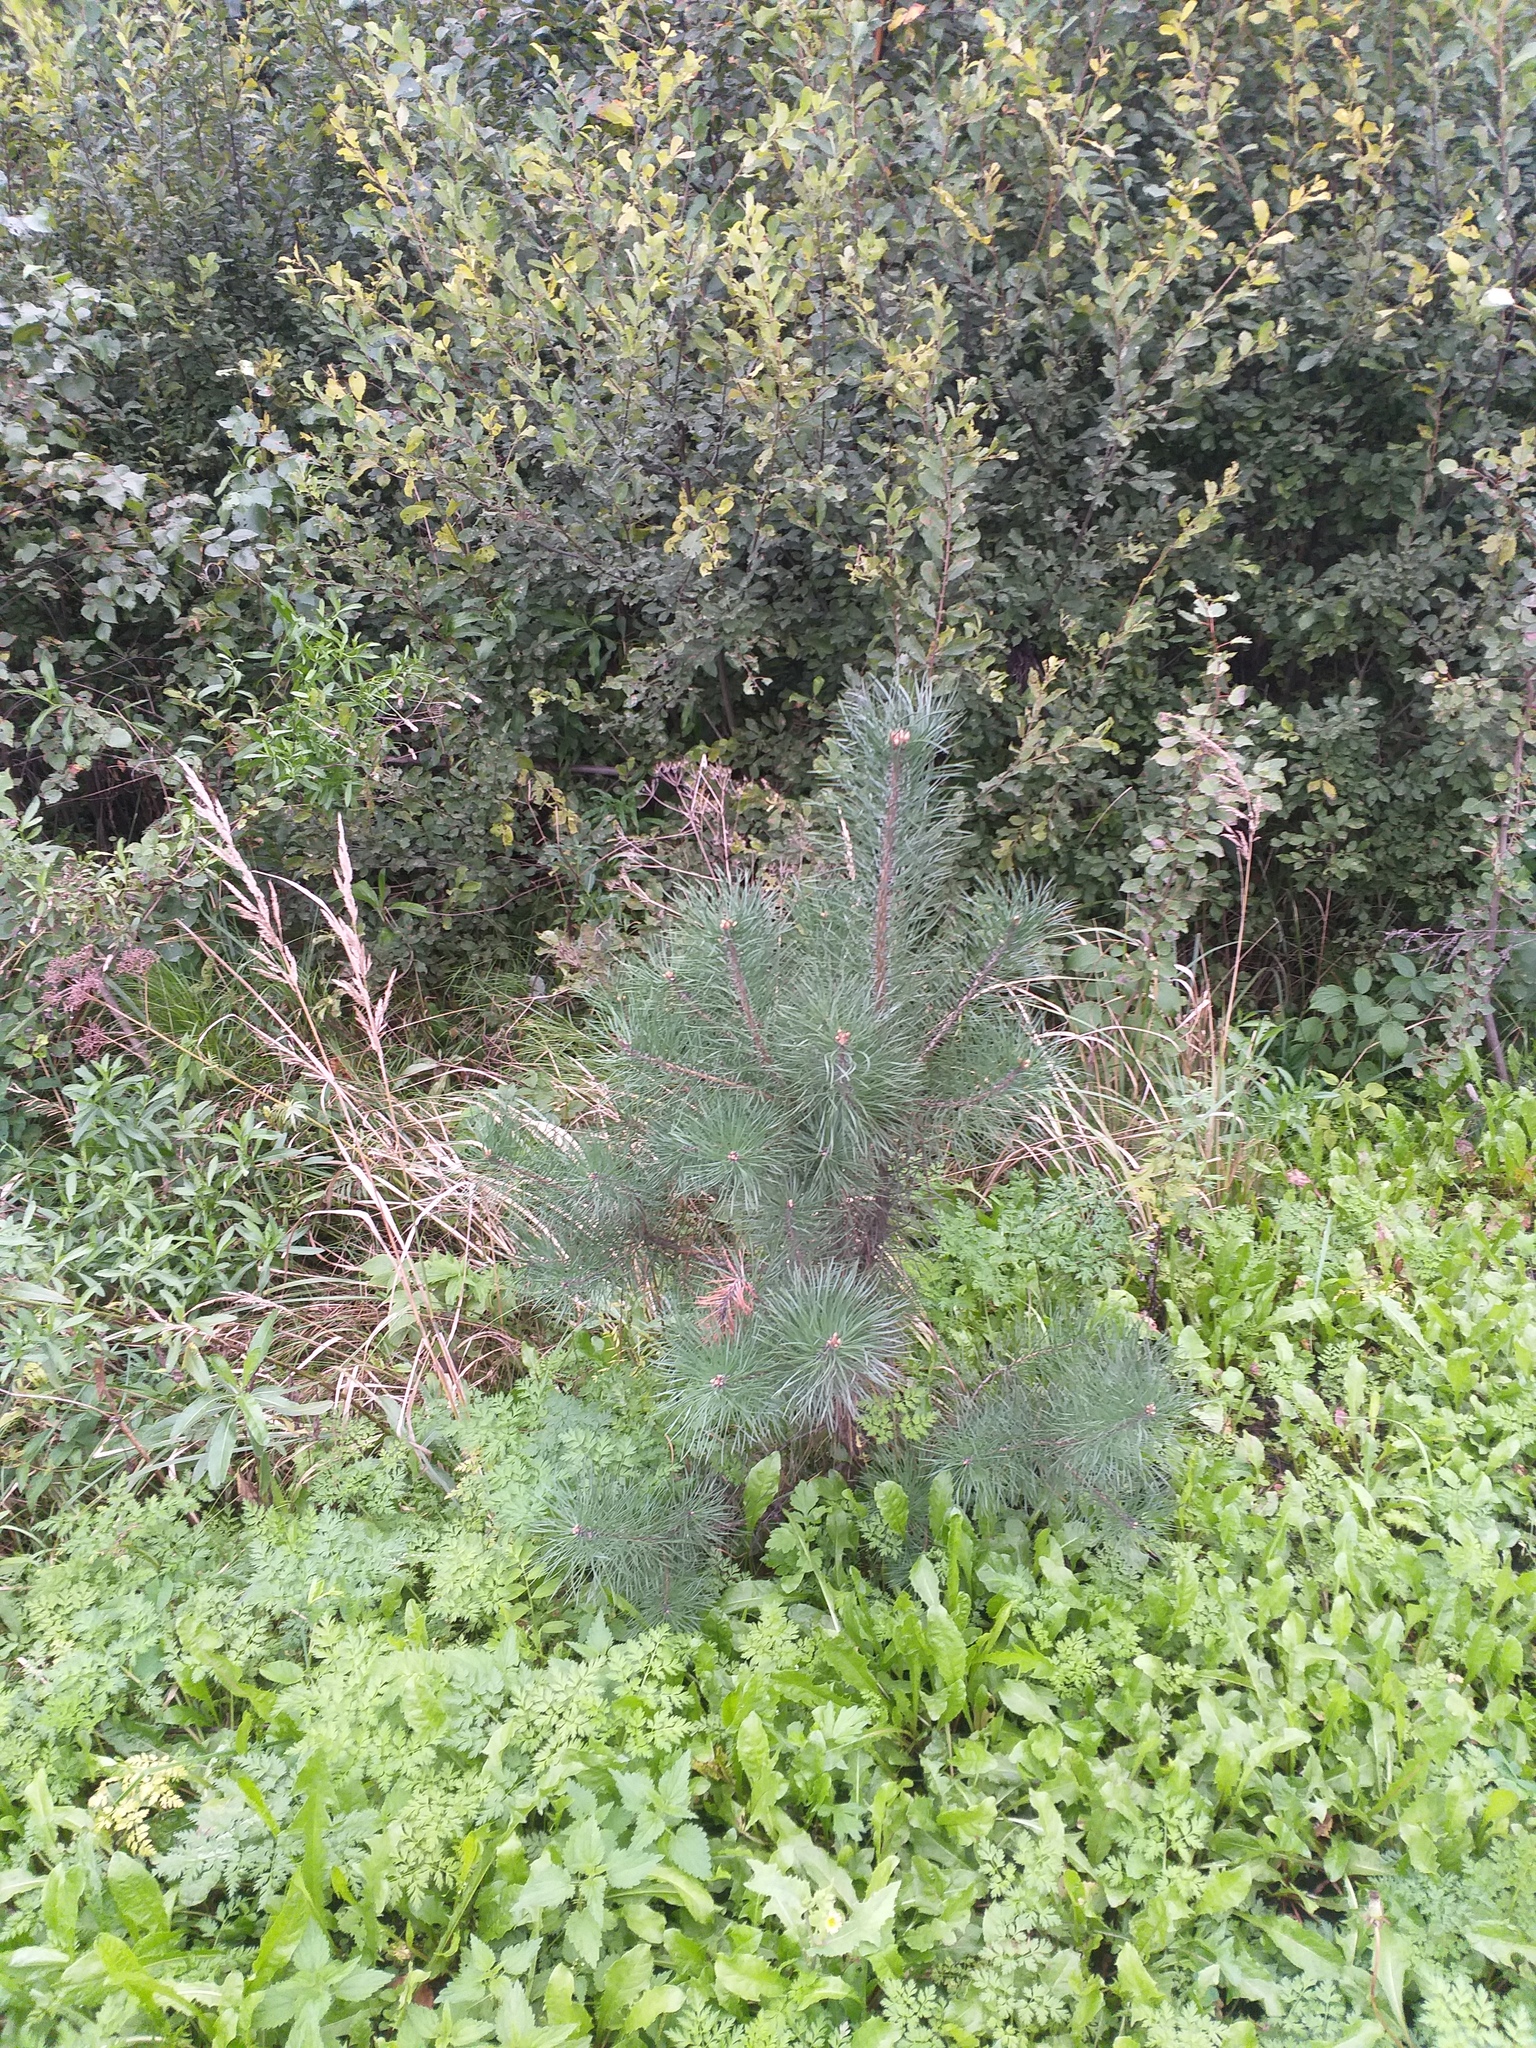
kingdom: Plantae
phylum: Tracheophyta
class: Pinopsida
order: Pinales
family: Pinaceae
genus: Pinus
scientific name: Pinus sylvestris
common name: Scots pine
